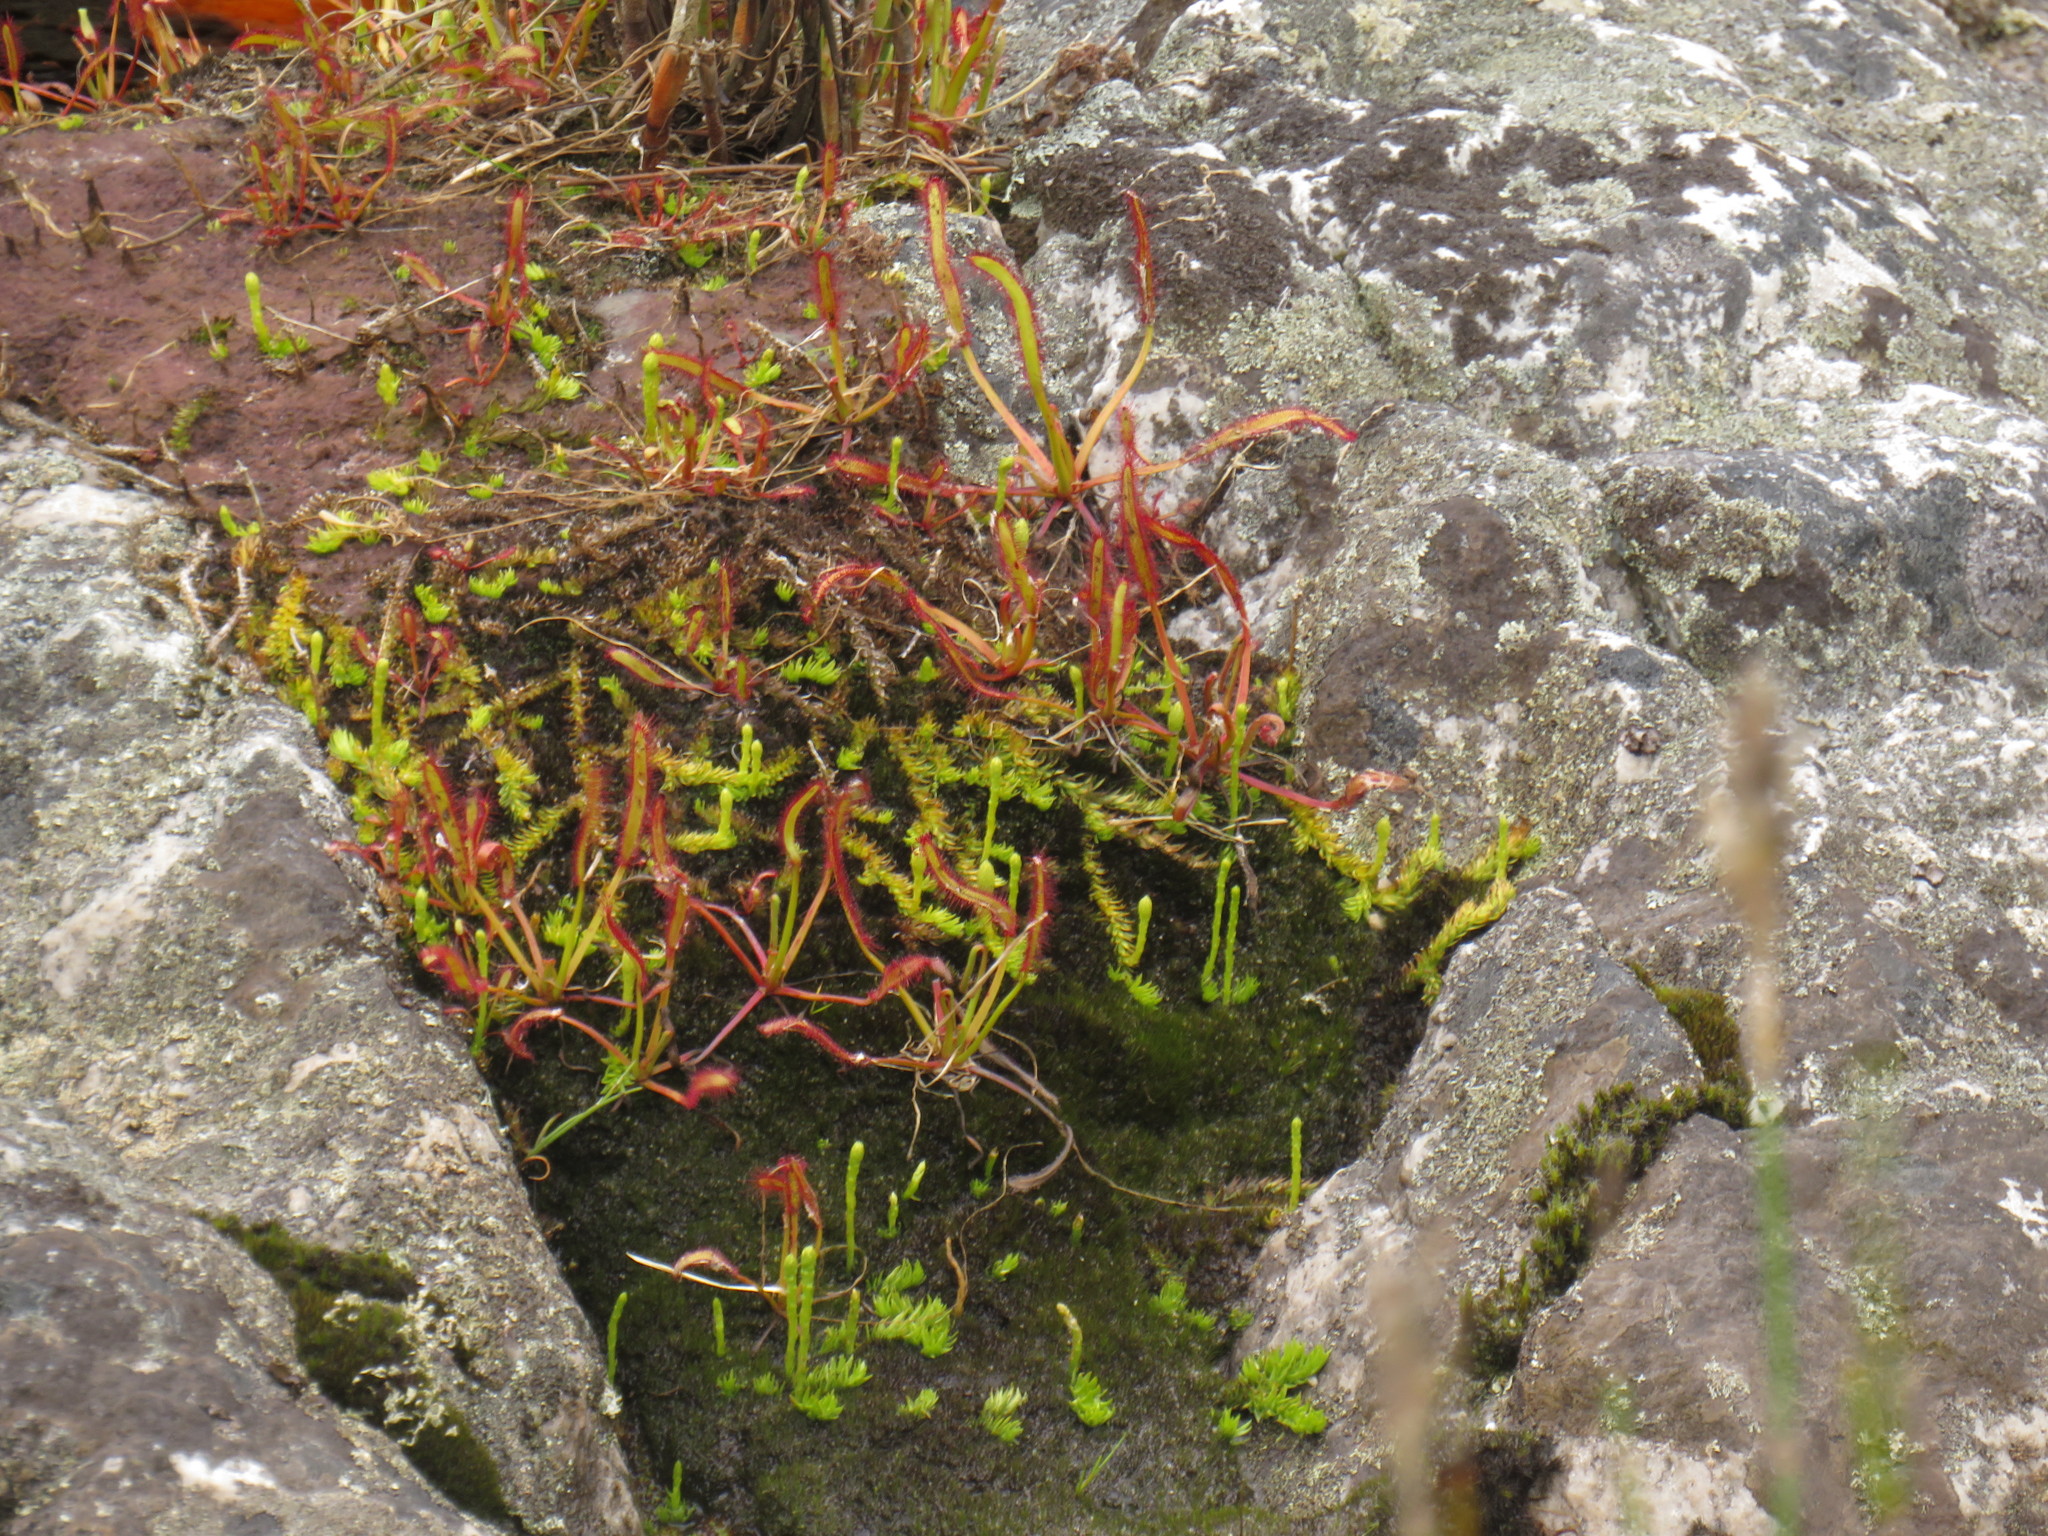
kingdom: Plantae
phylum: Tracheophyta
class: Lycopodiopsida
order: Lycopodiales
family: Lycopodiaceae
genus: Pseudolycopodiella
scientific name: Pseudolycopodiella caroliniana
